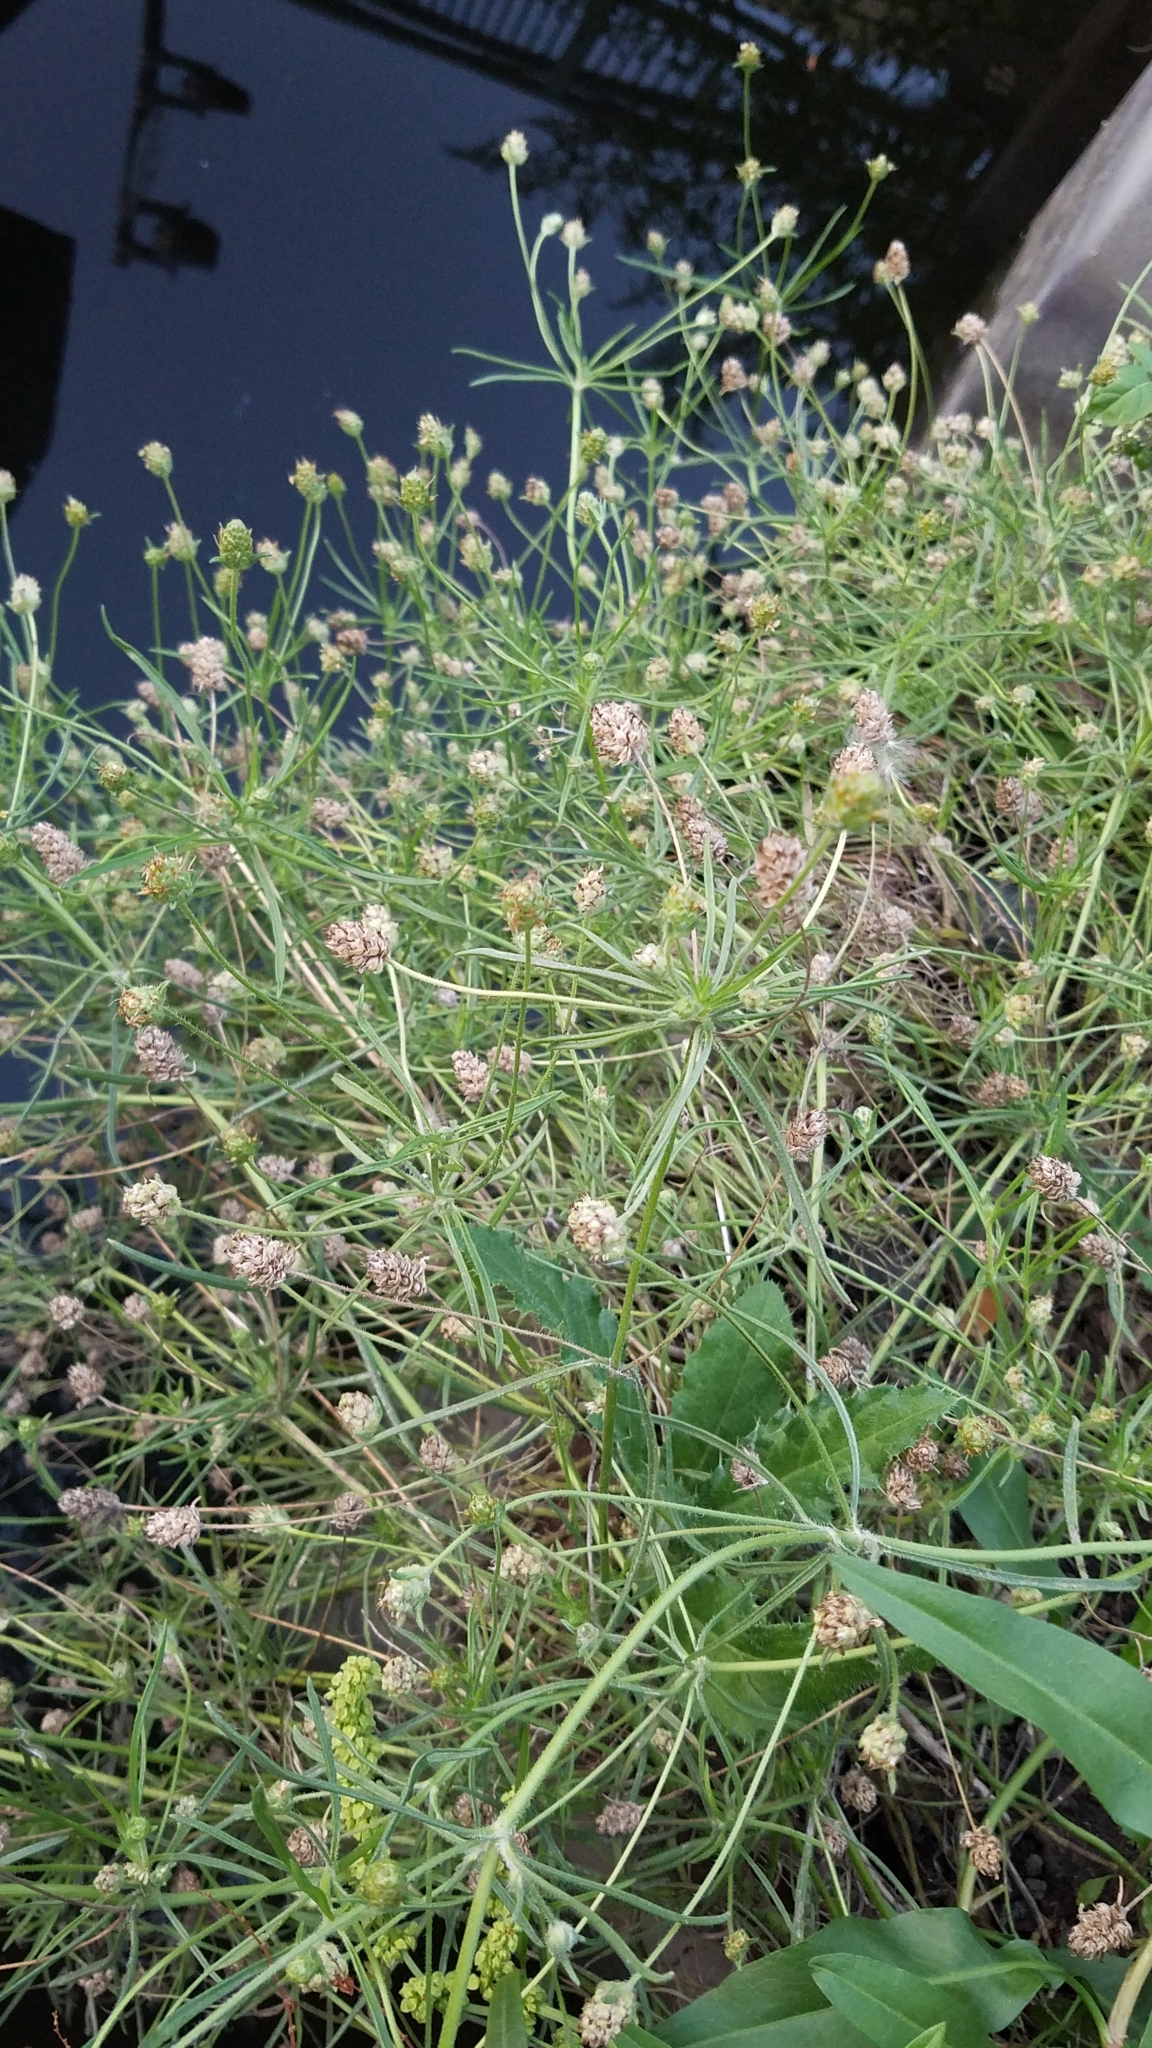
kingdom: Plantae
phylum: Tracheophyta
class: Magnoliopsida
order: Lamiales
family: Plantaginaceae
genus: Plantago
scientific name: Plantago arenaria
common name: Branched plantain
